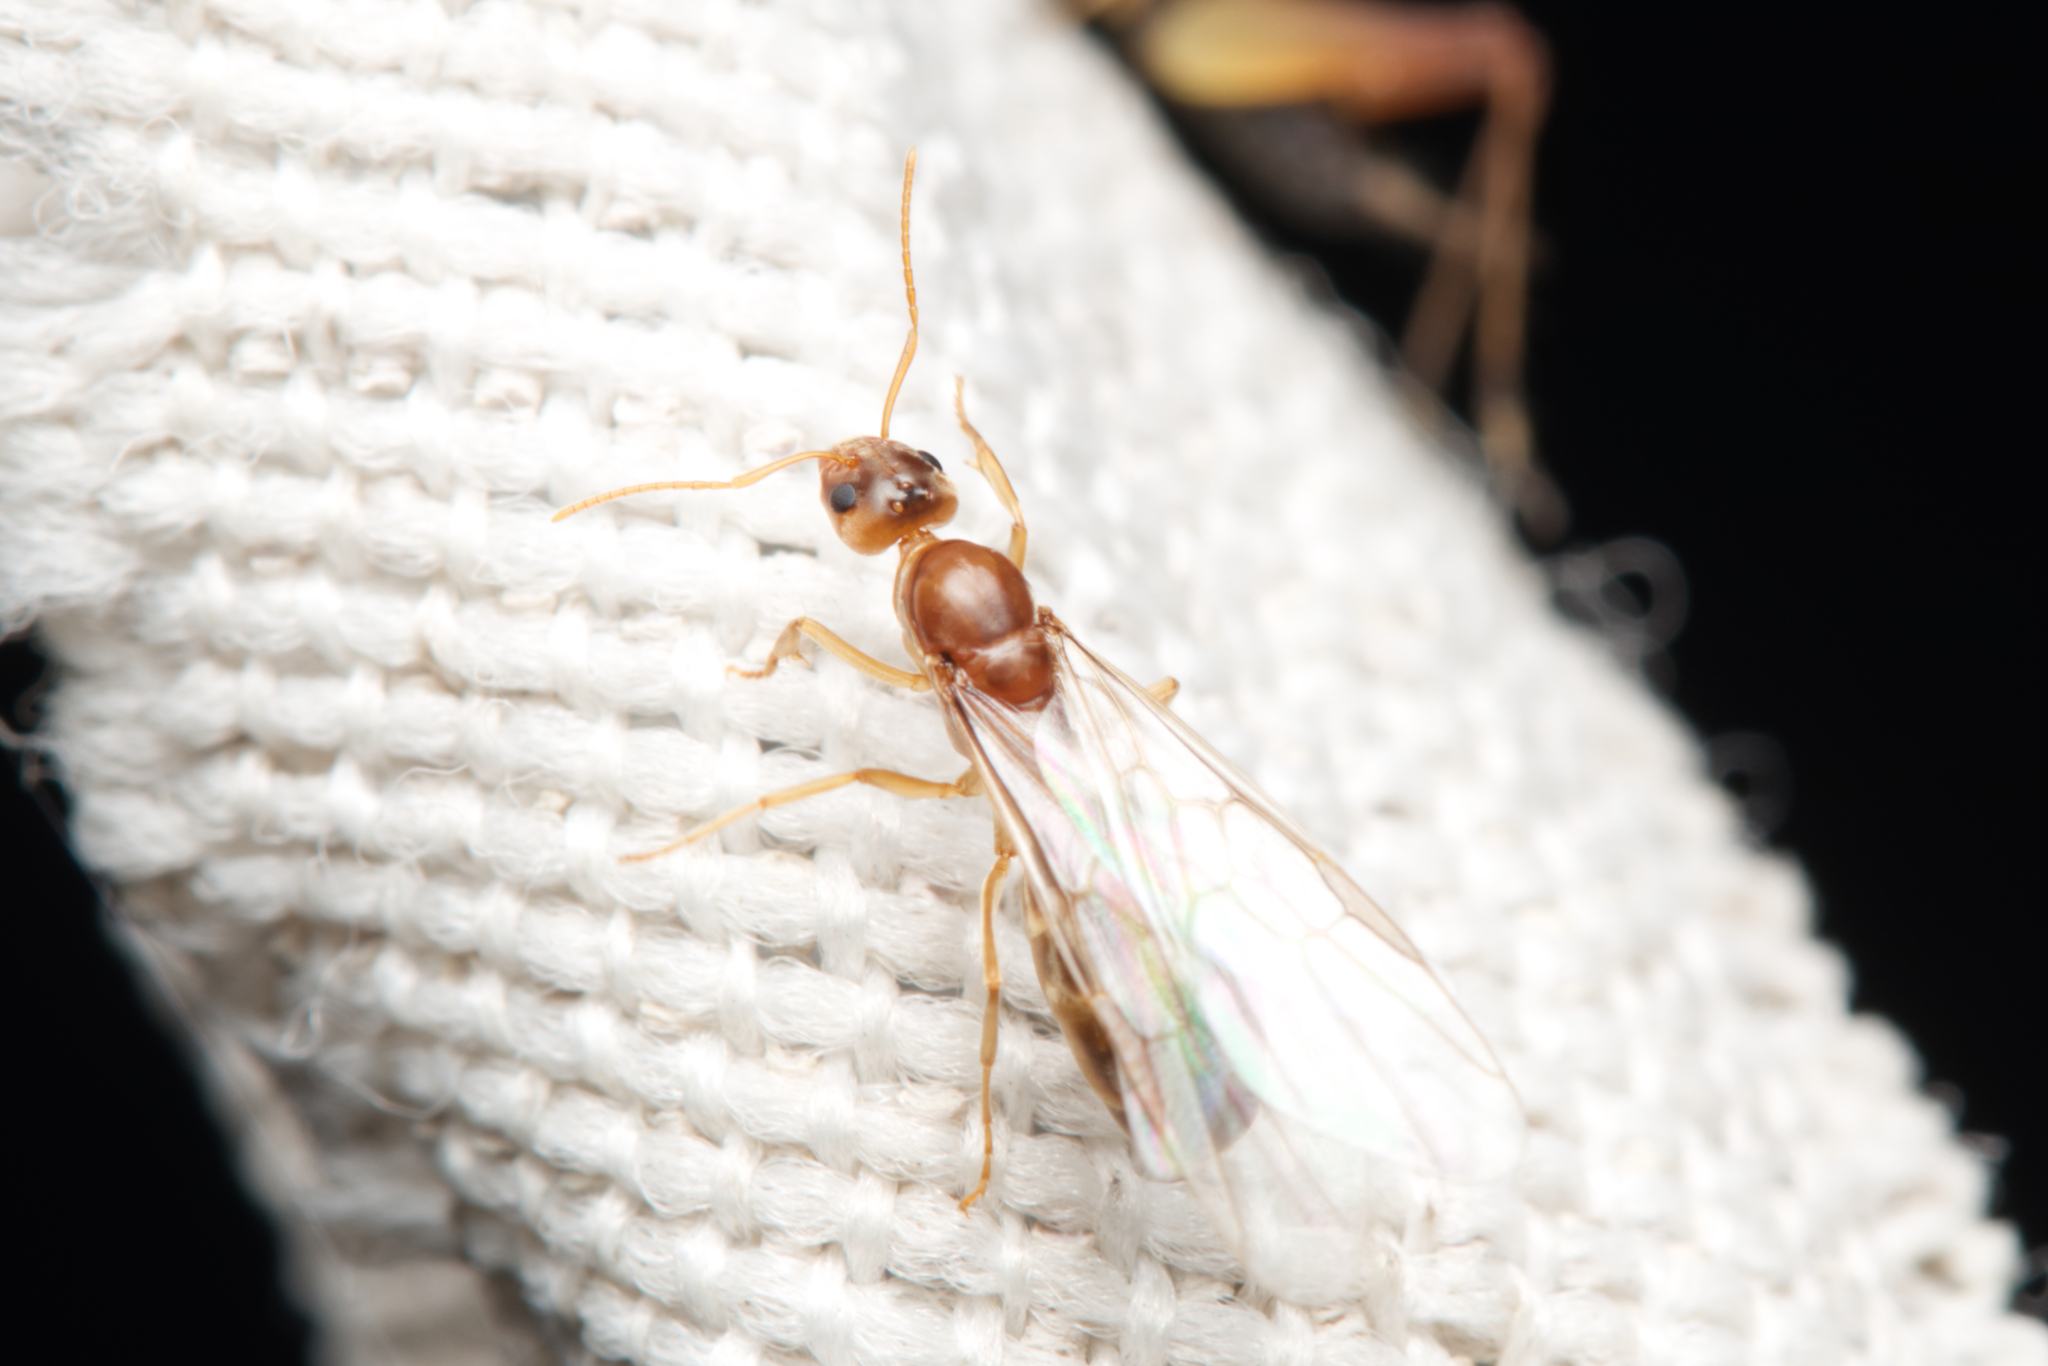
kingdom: Animalia
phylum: Arthropoda
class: Insecta
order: Hymenoptera
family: Formicidae
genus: Iridomyrmex
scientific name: Iridomyrmex pallidus
